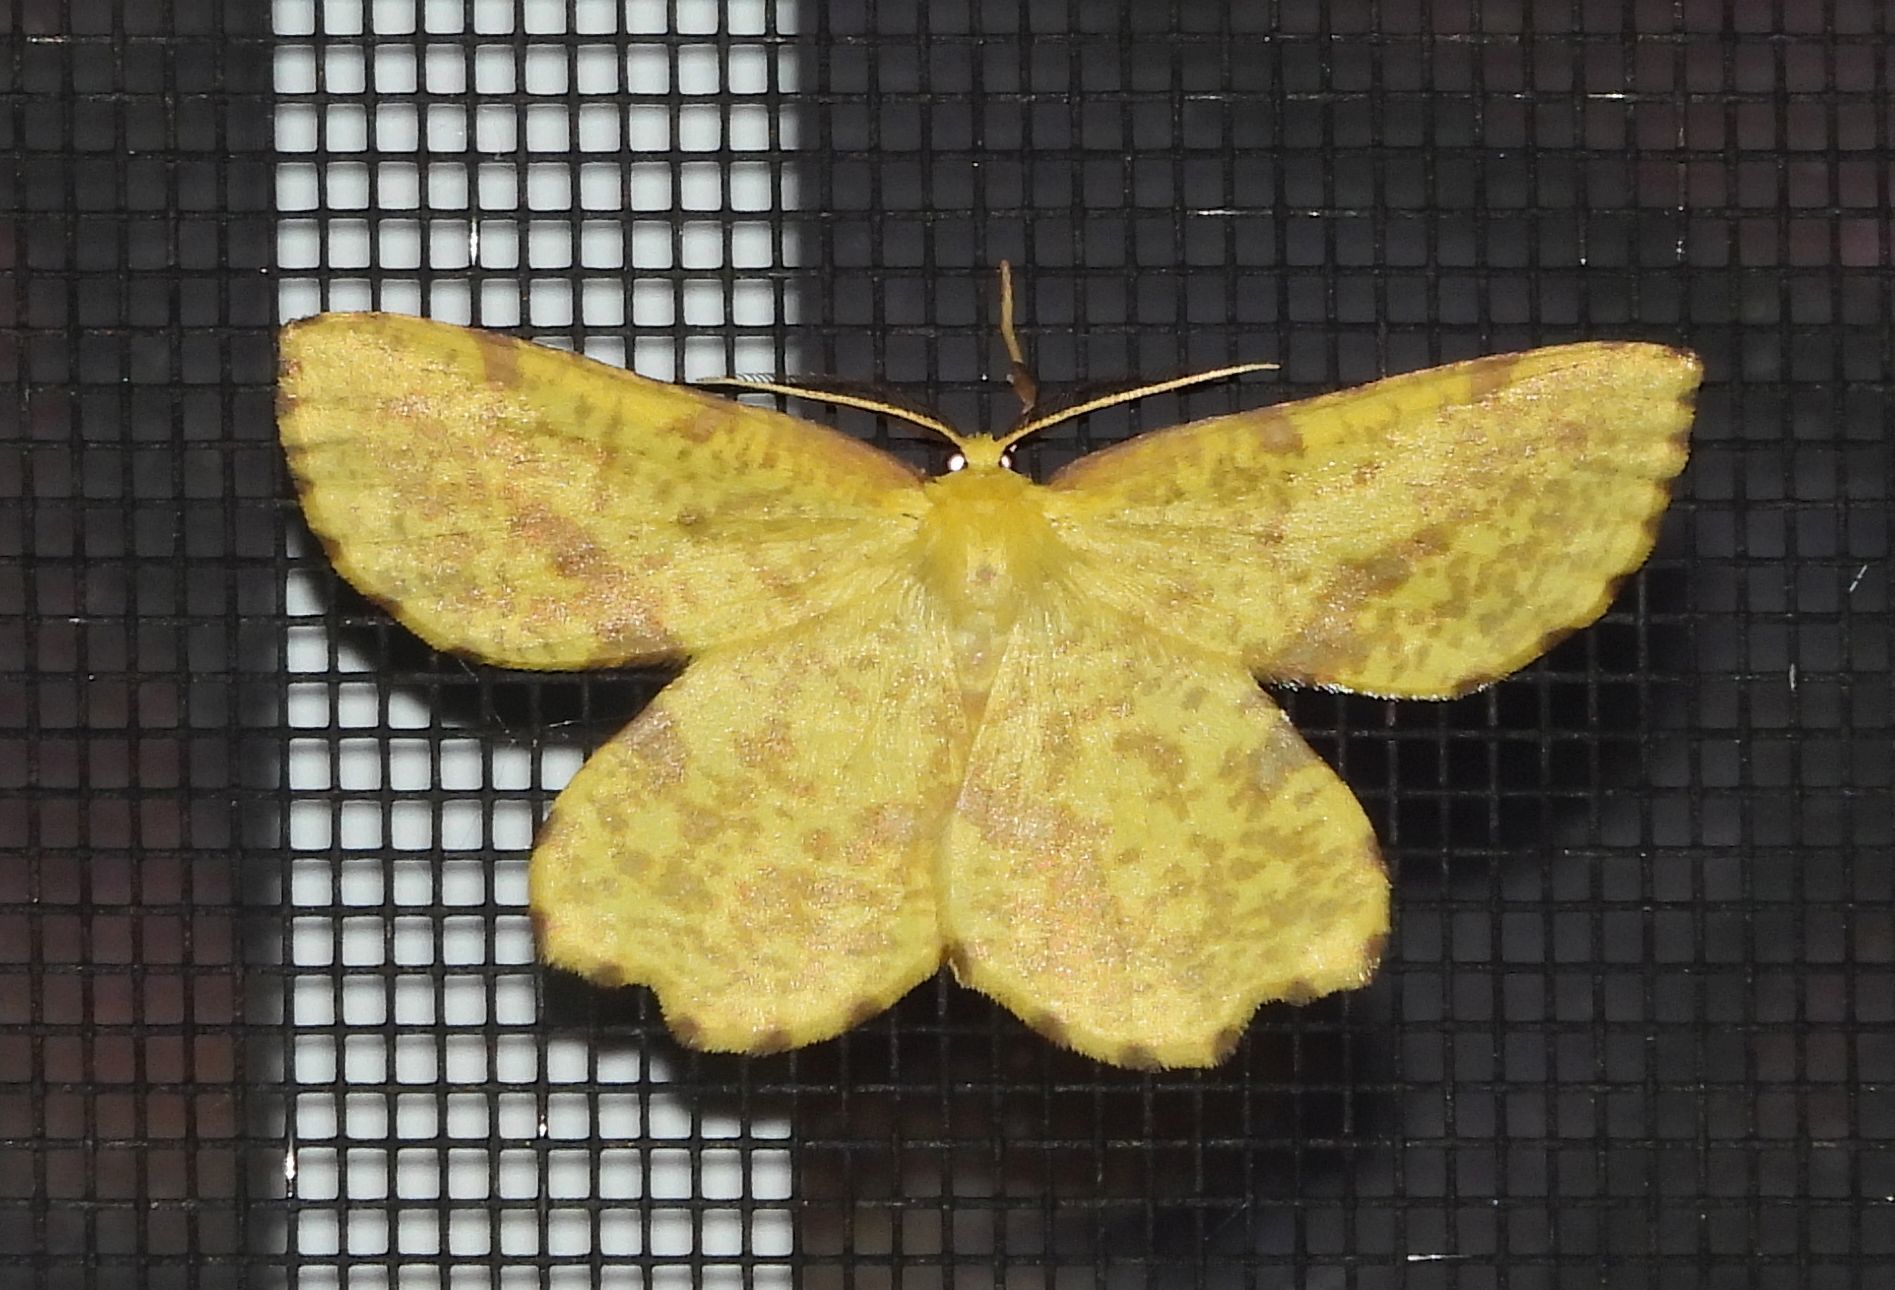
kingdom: Animalia
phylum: Arthropoda
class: Insecta
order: Lepidoptera
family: Geometridae
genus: Xanthotype
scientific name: Xanthotype
